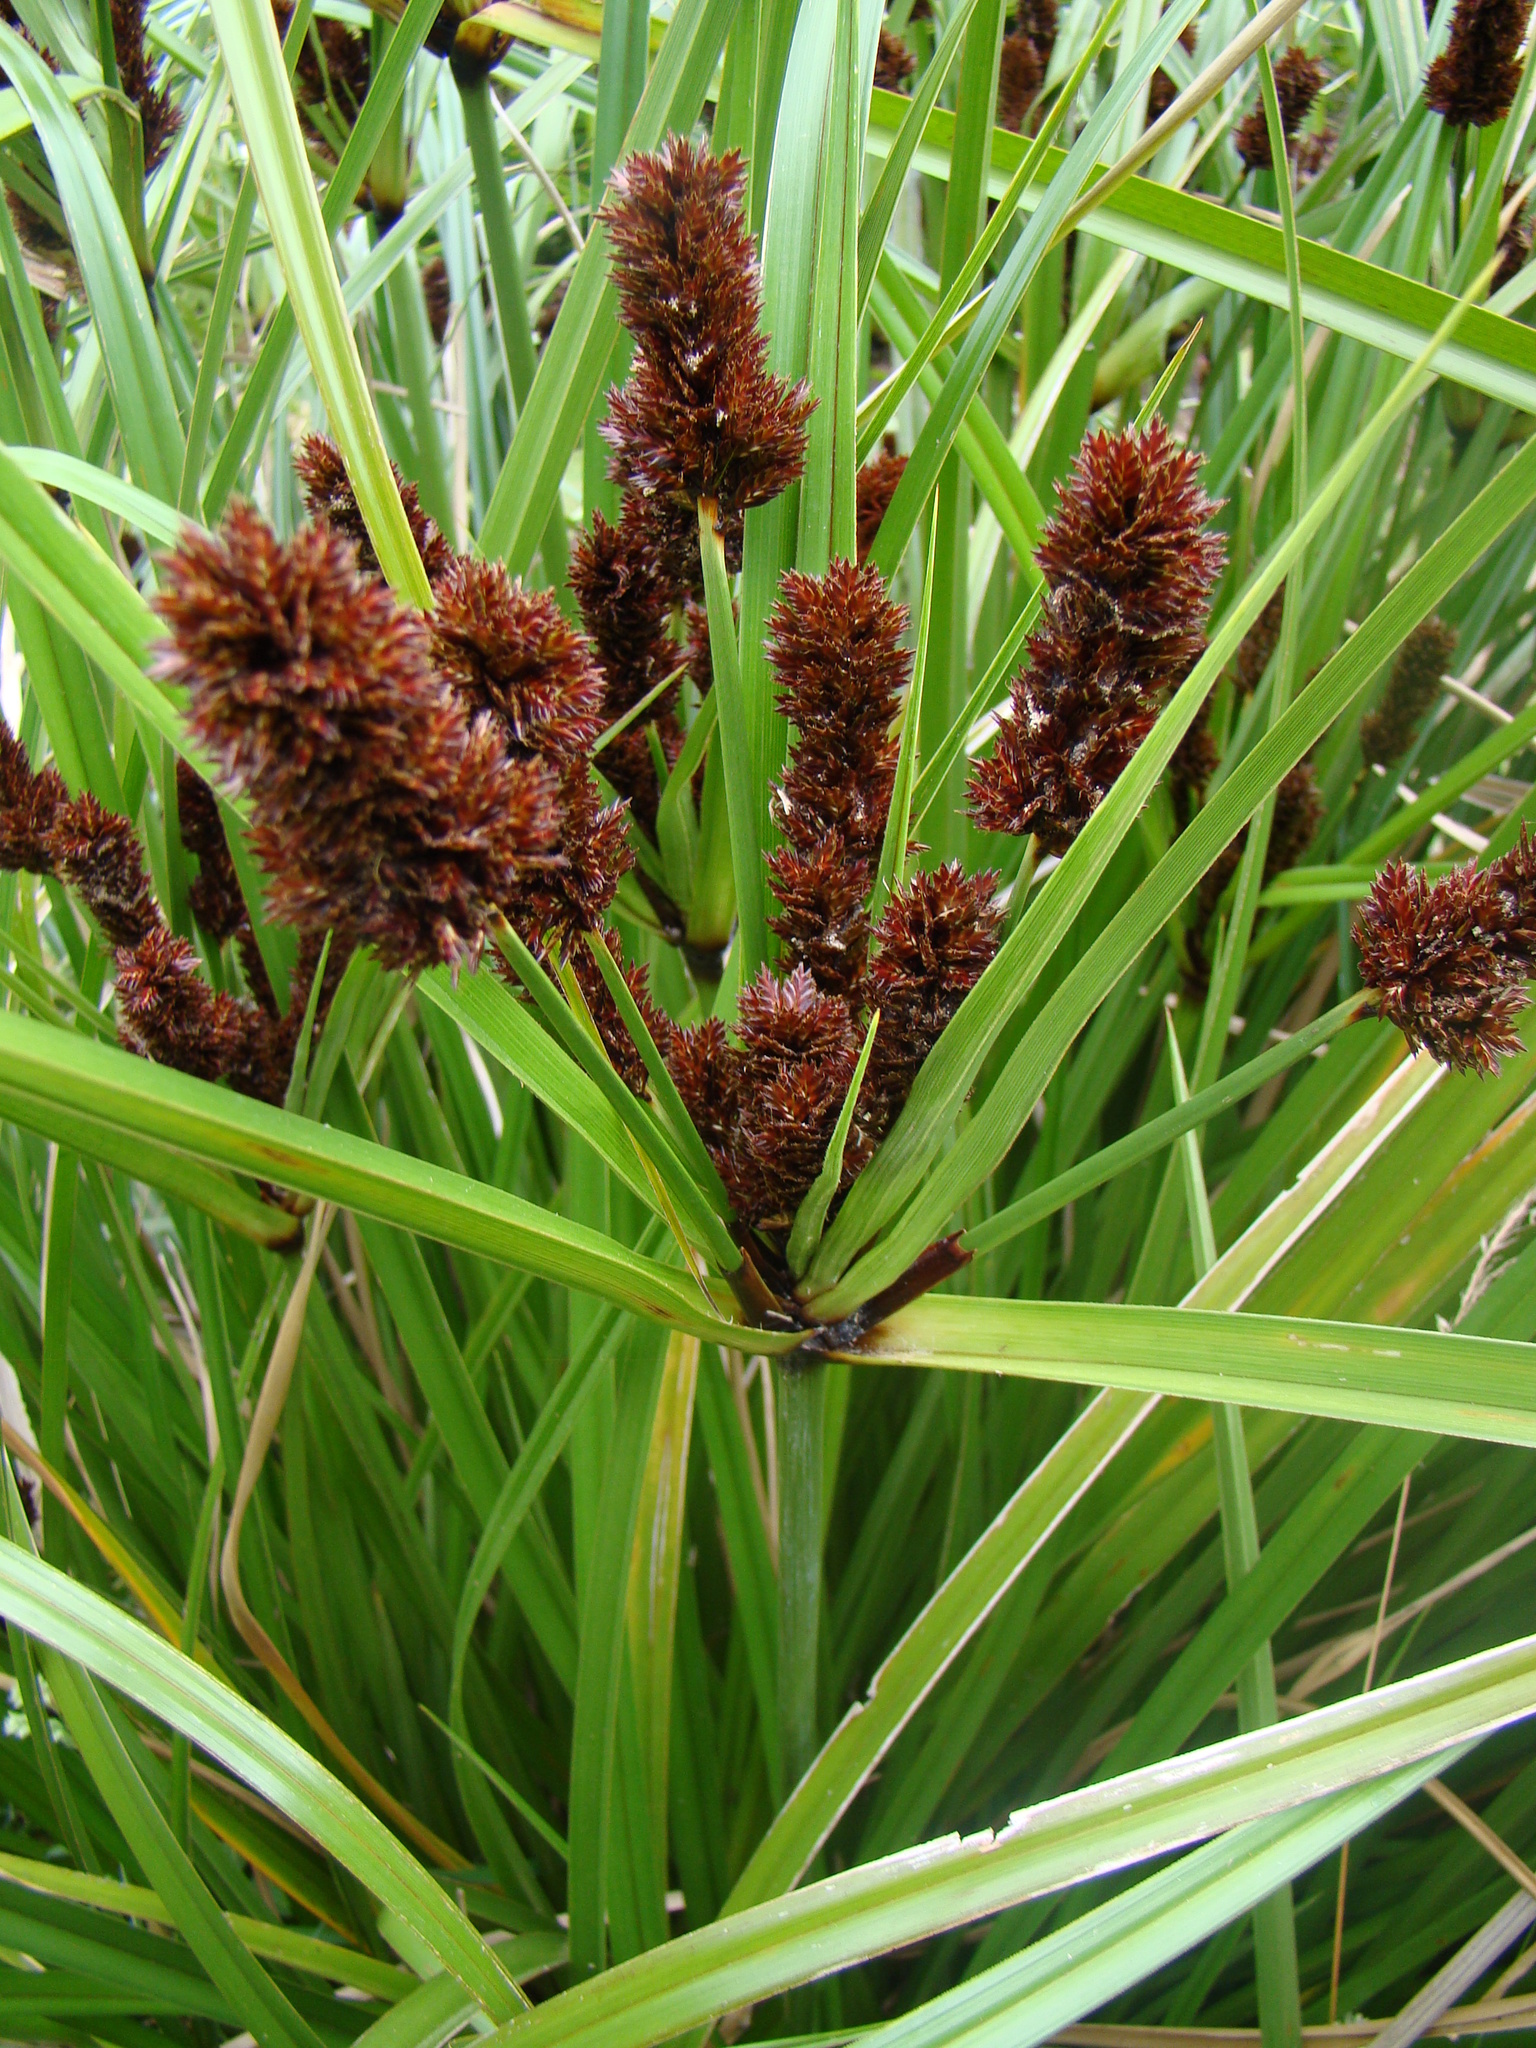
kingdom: Plantae
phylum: Tracheophyta
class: Liliopsida
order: Poales
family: Cyperaceae
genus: Cyperus
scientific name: Cyperus ustulatus
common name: Giant umbrella-sedge
